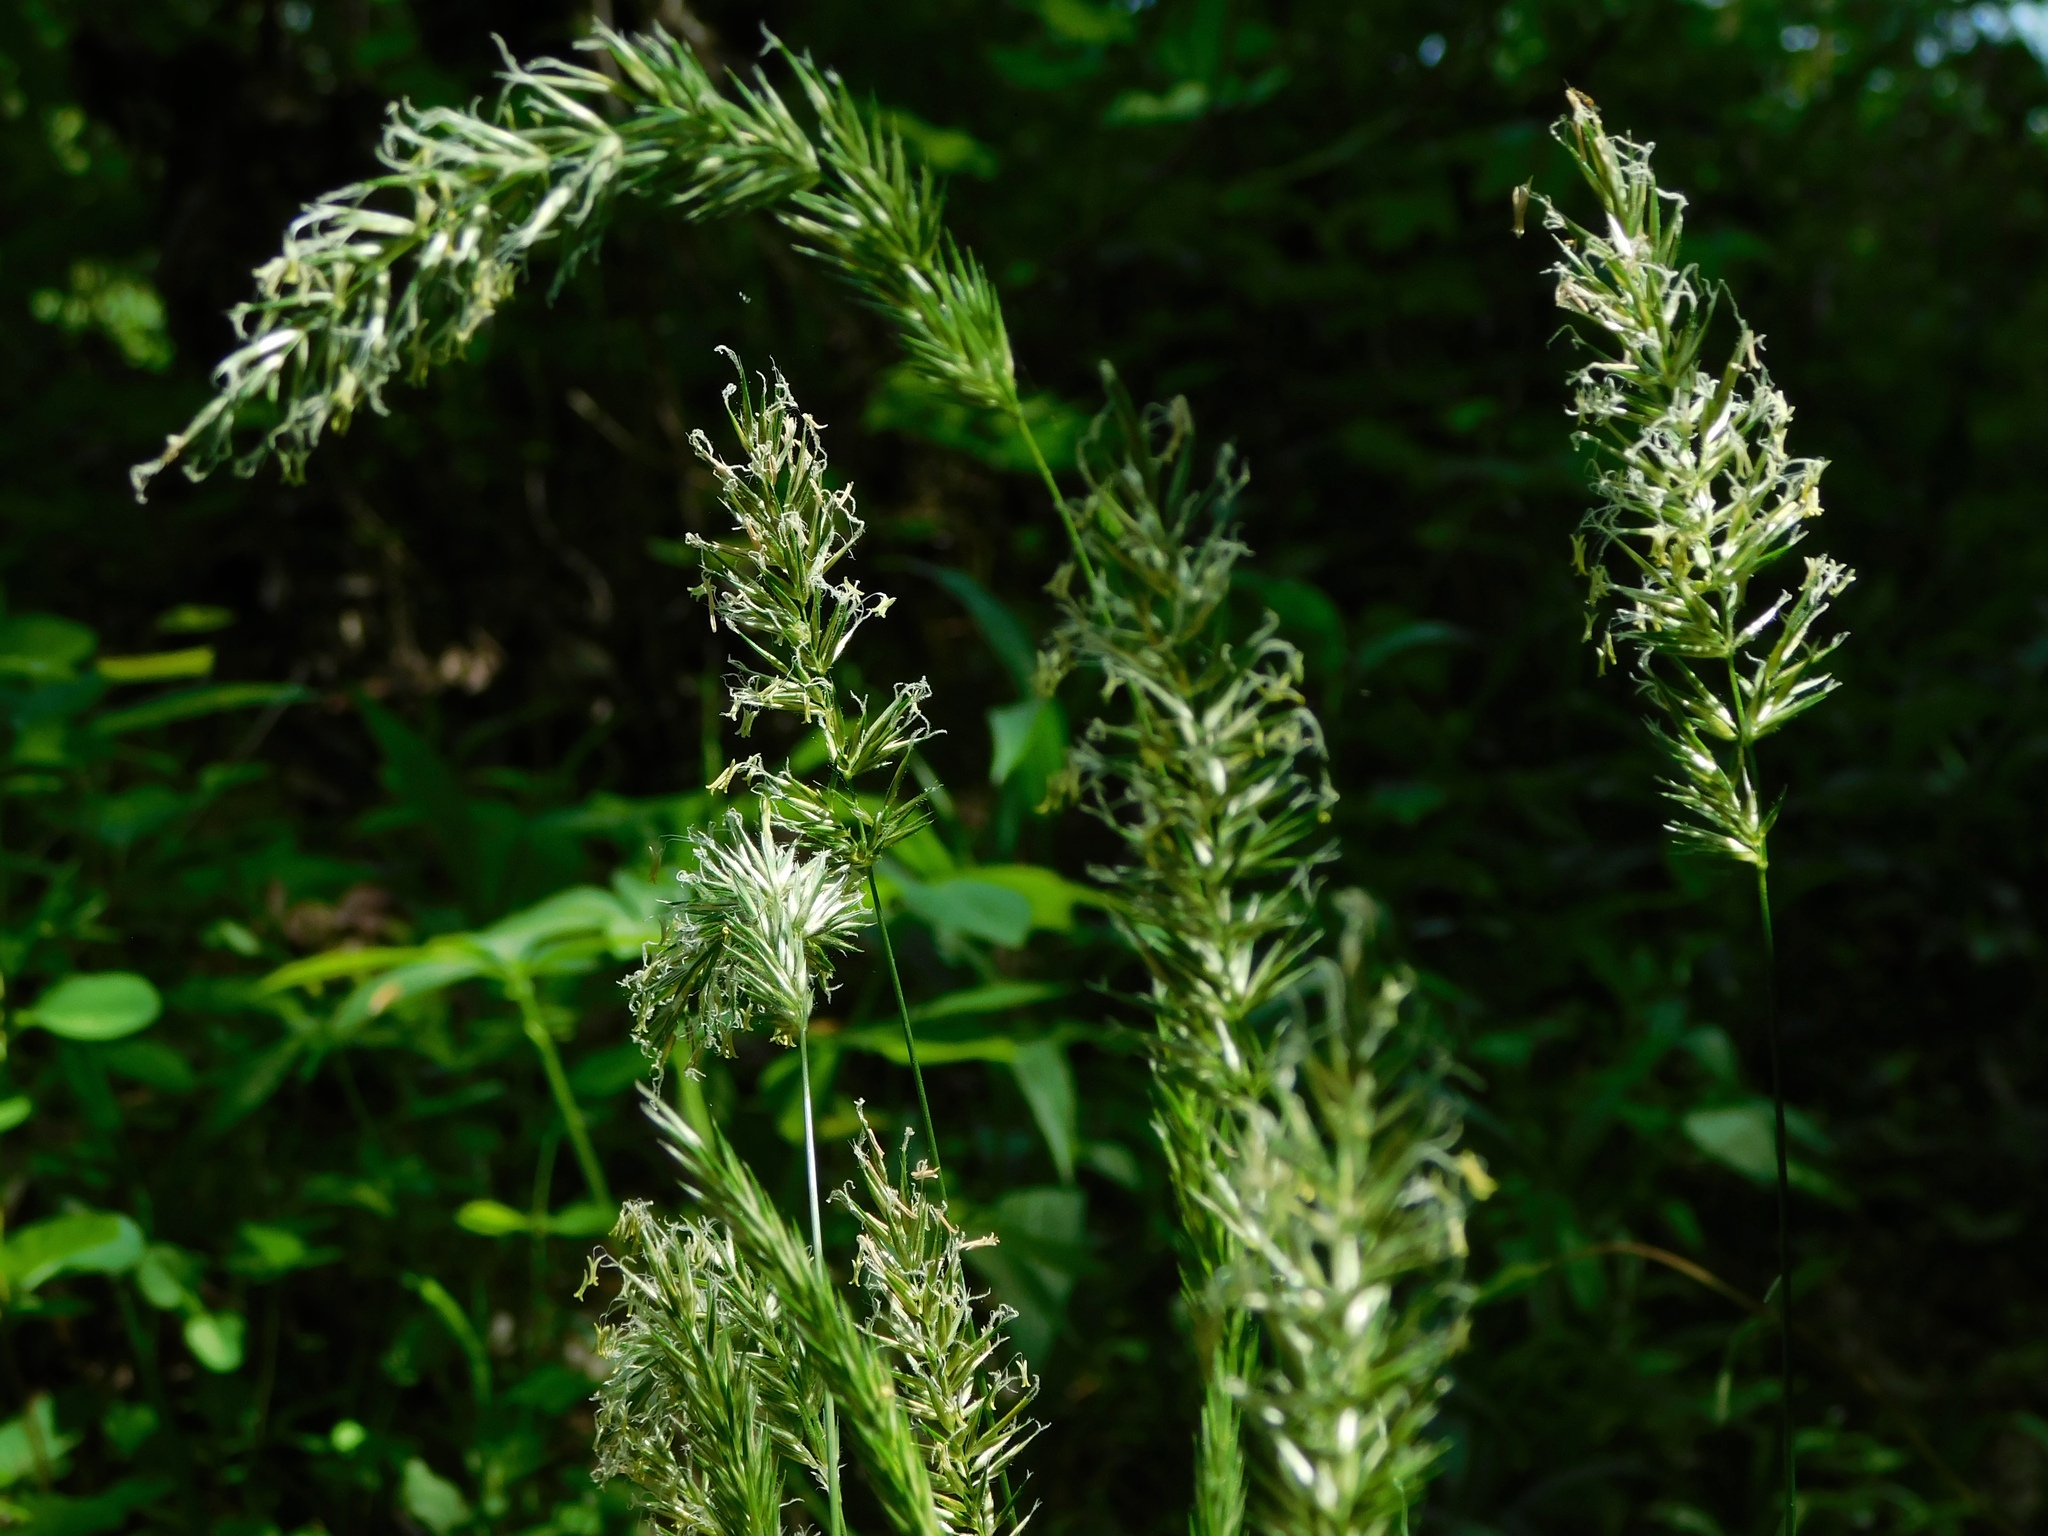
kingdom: Plantae
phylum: Tracheophyta
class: Liliopsida
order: Poales
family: Poaceae
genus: Anthoxanthum
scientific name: Anthoxanthum odoratum
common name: Sweet vernalgrass
